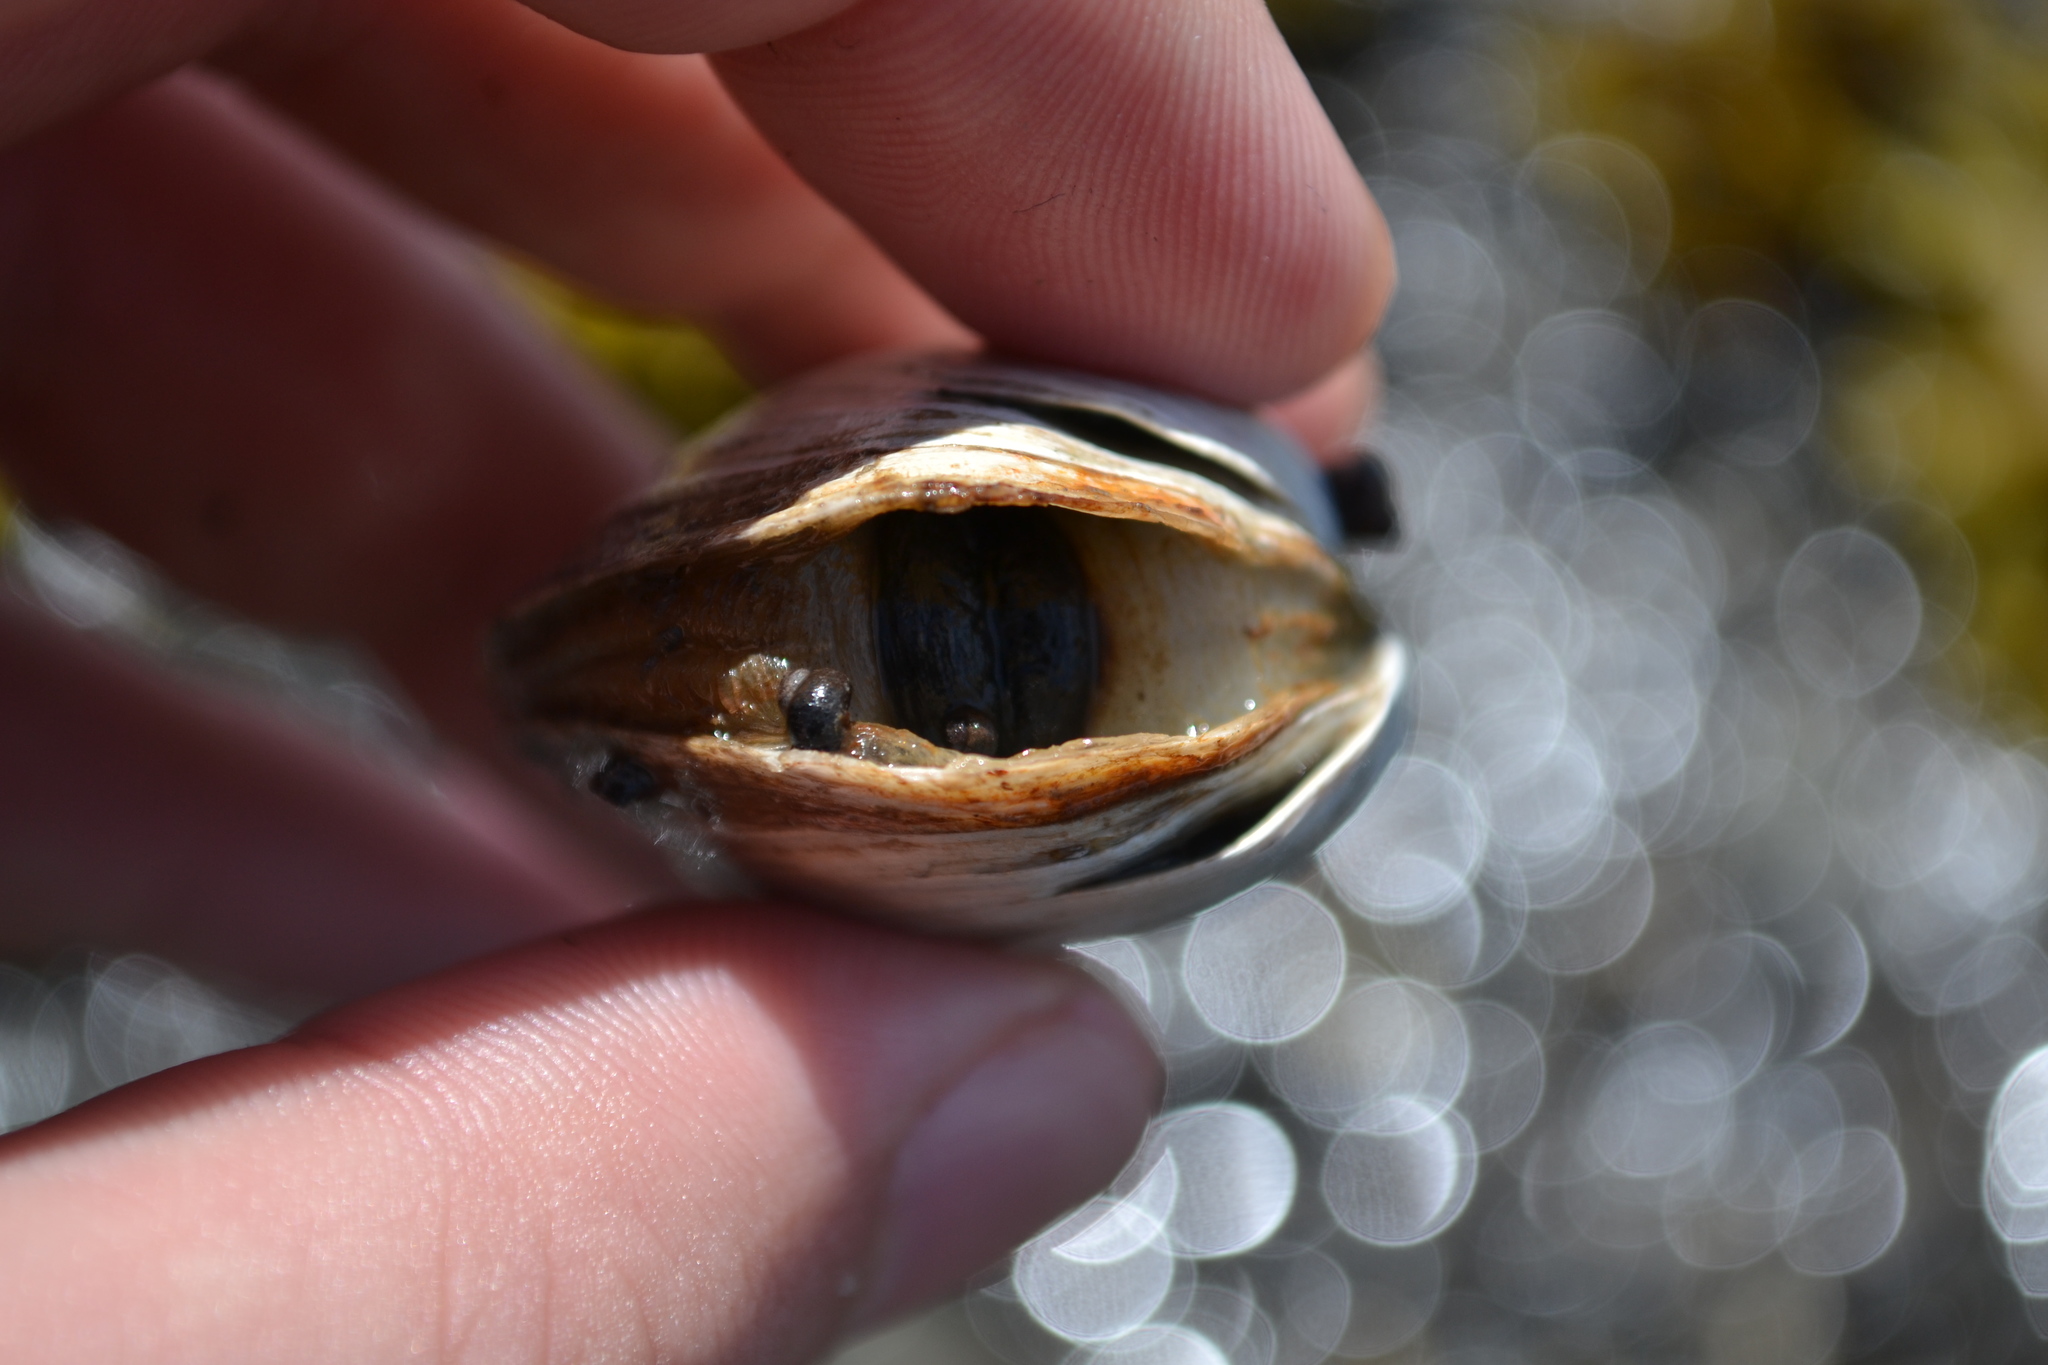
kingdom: Animalia
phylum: Mollusca
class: Bivalvia
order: Myida
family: Myidae
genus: Mya
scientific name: Mya arenaria
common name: Soft-shelled clam
